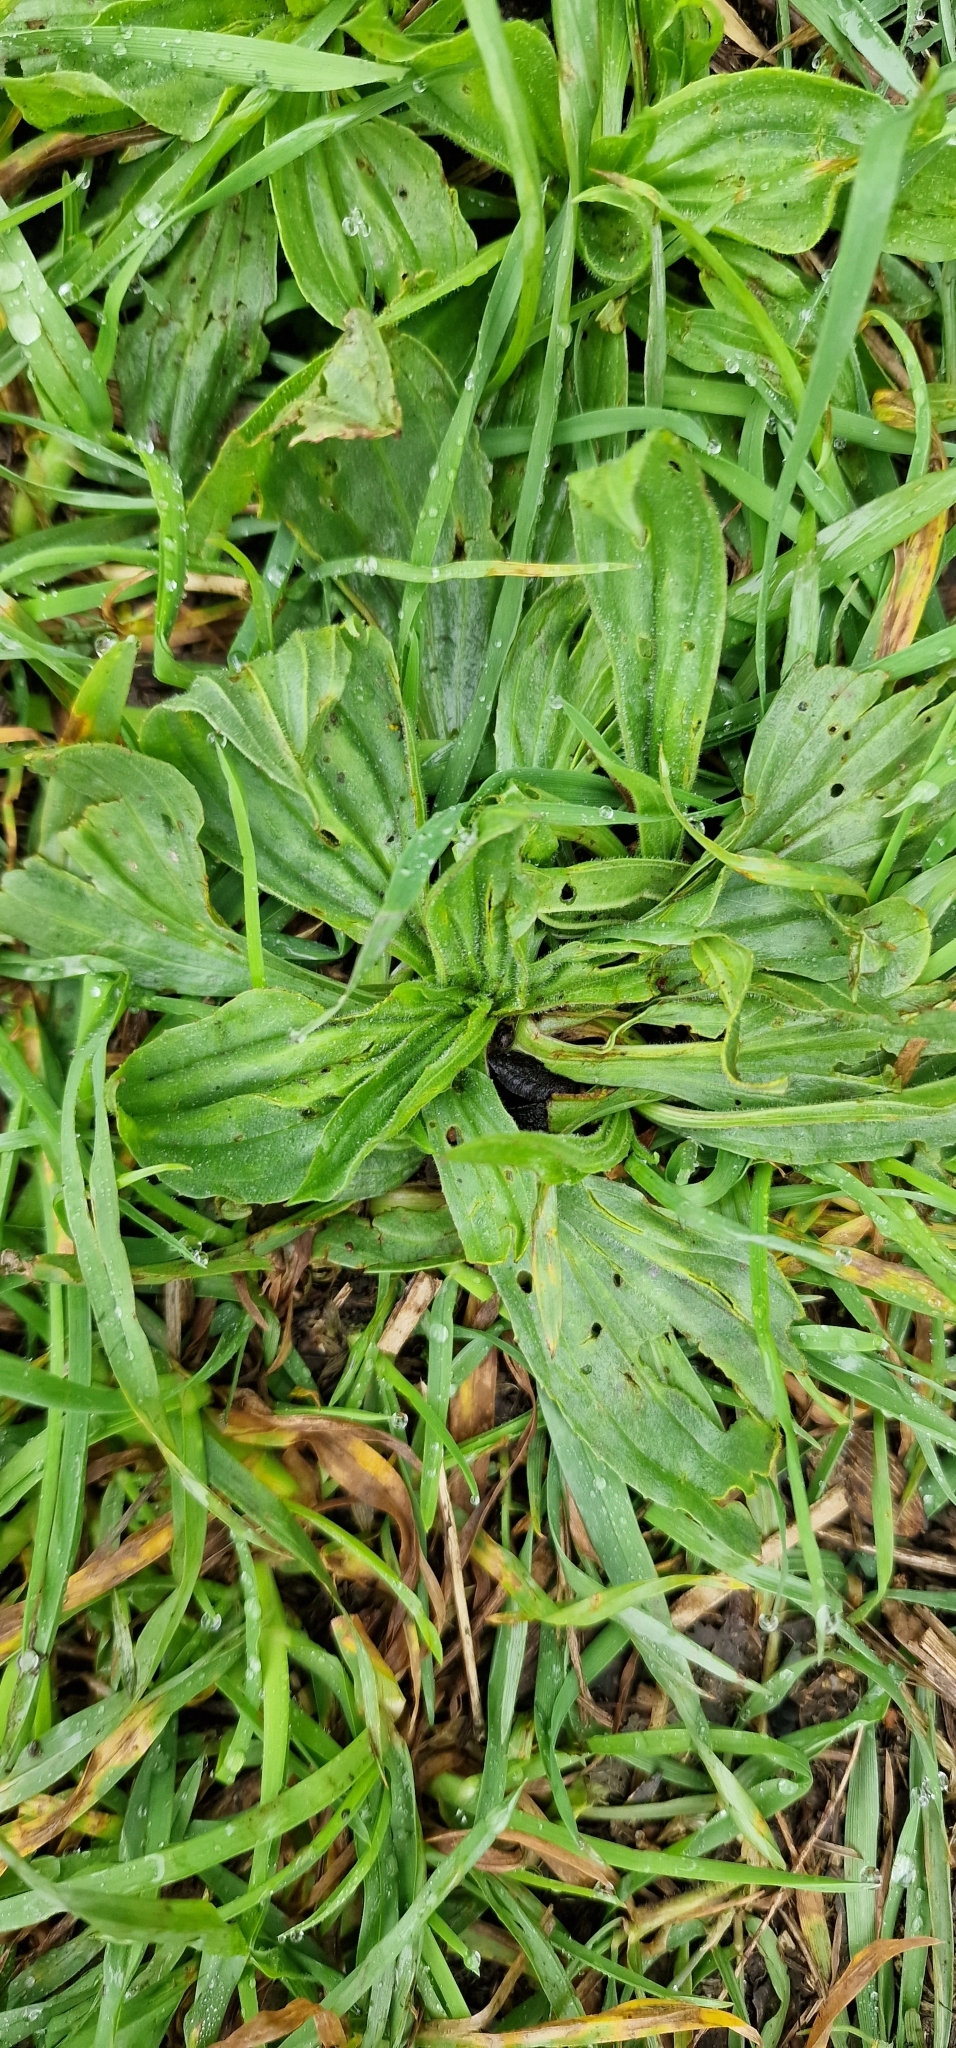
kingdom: Plantae
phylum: Tracheophyta
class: Magnoliopsida
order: Lamiales
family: Plantaginaceae
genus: Plantago
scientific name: Plantago lanceolata
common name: Ribwort plantain
